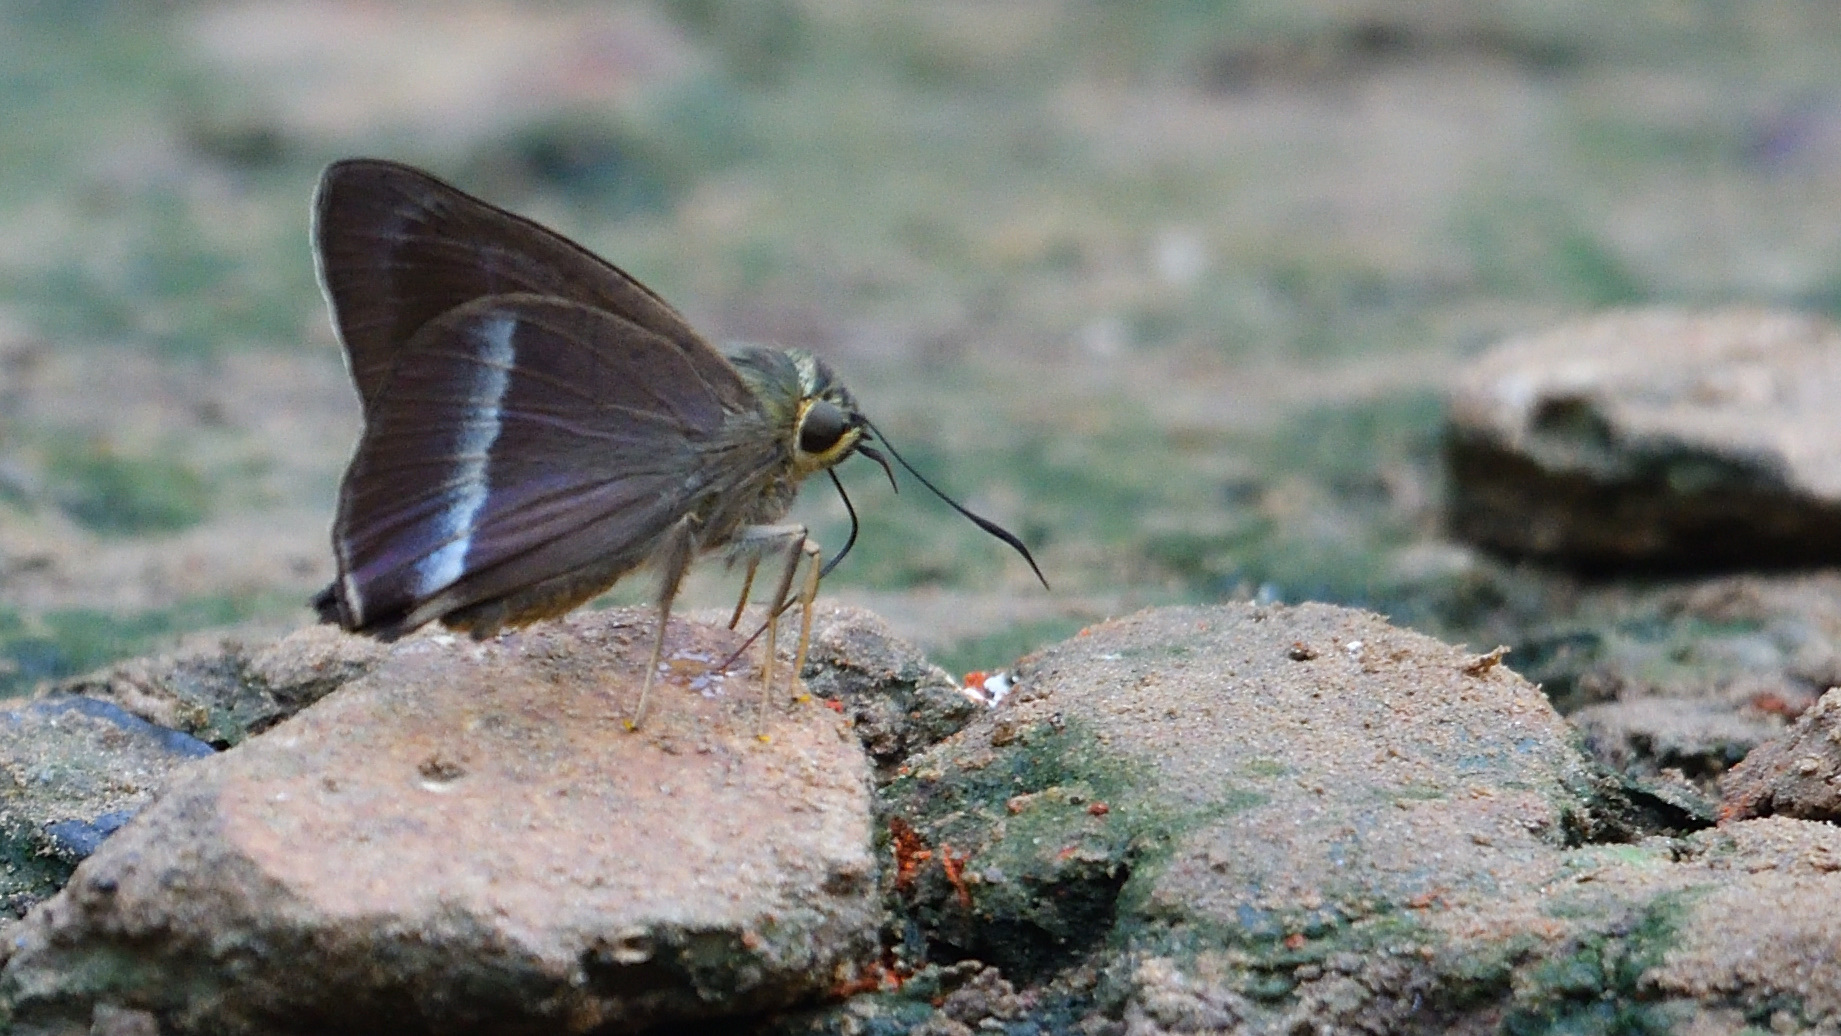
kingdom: Animalia
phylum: Arthropoda
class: Insecta
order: Lepidoptera
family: Hesperiidae
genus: Hasora
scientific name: Hasora chromus
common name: Common banded awl
